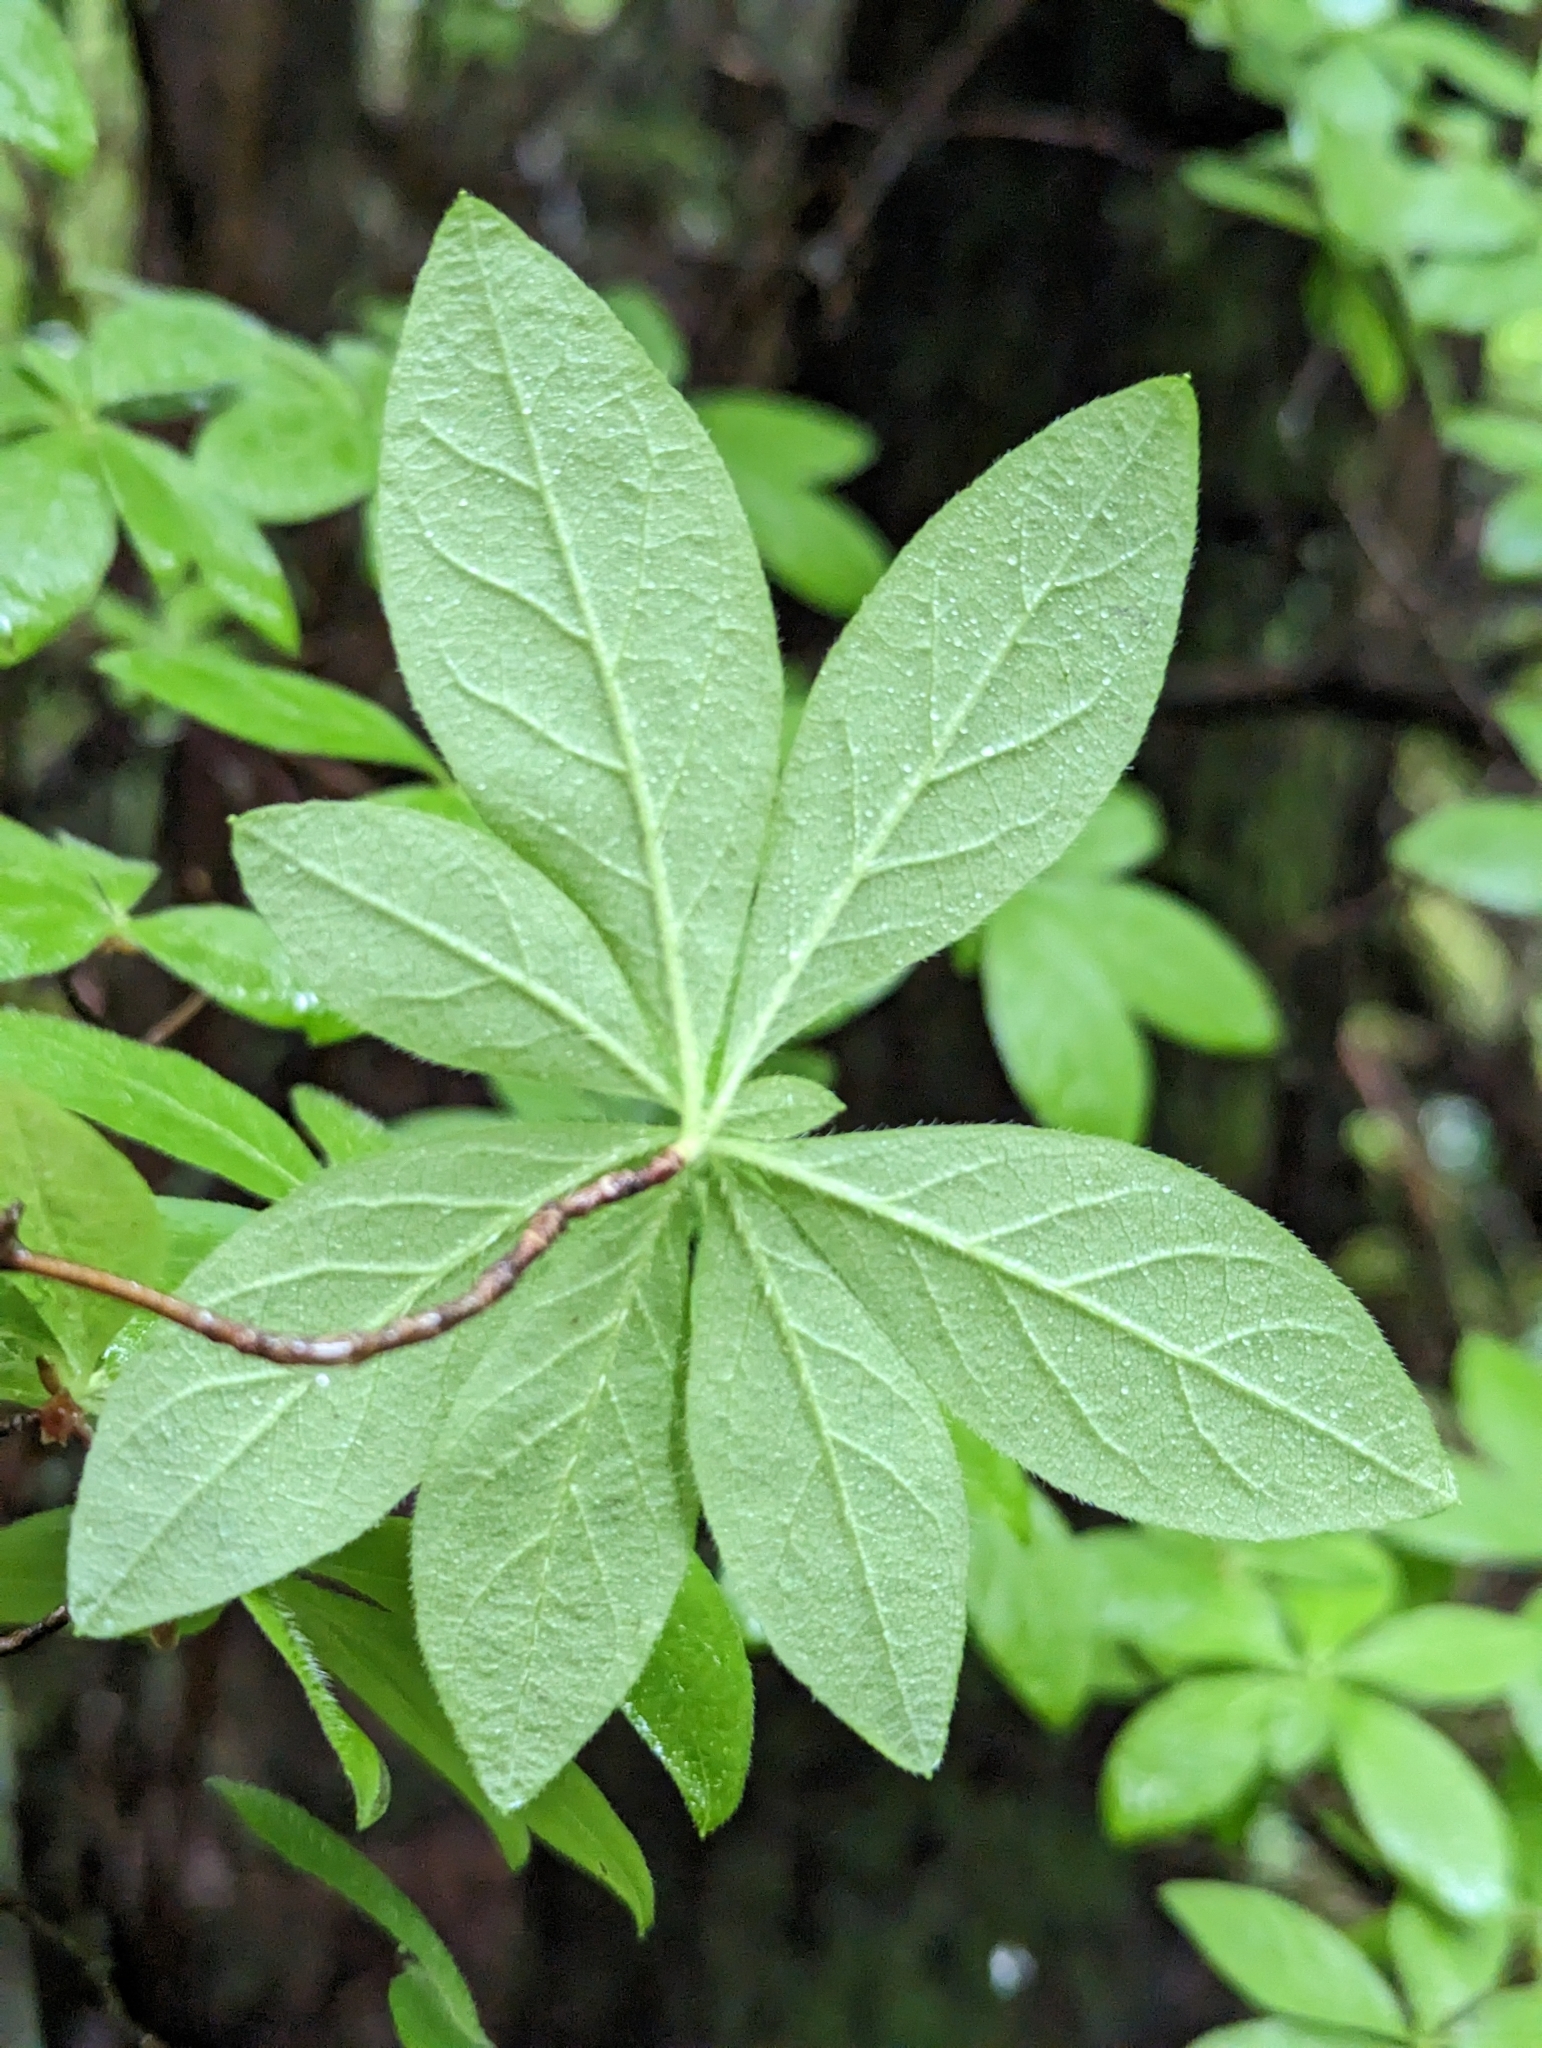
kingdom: Plantae
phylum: Tracheophyta
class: Magnoliopsida
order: Ericales
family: Ericaceae
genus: Rhododendron
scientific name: Rhododendron menziesii
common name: Pacific menziesia
